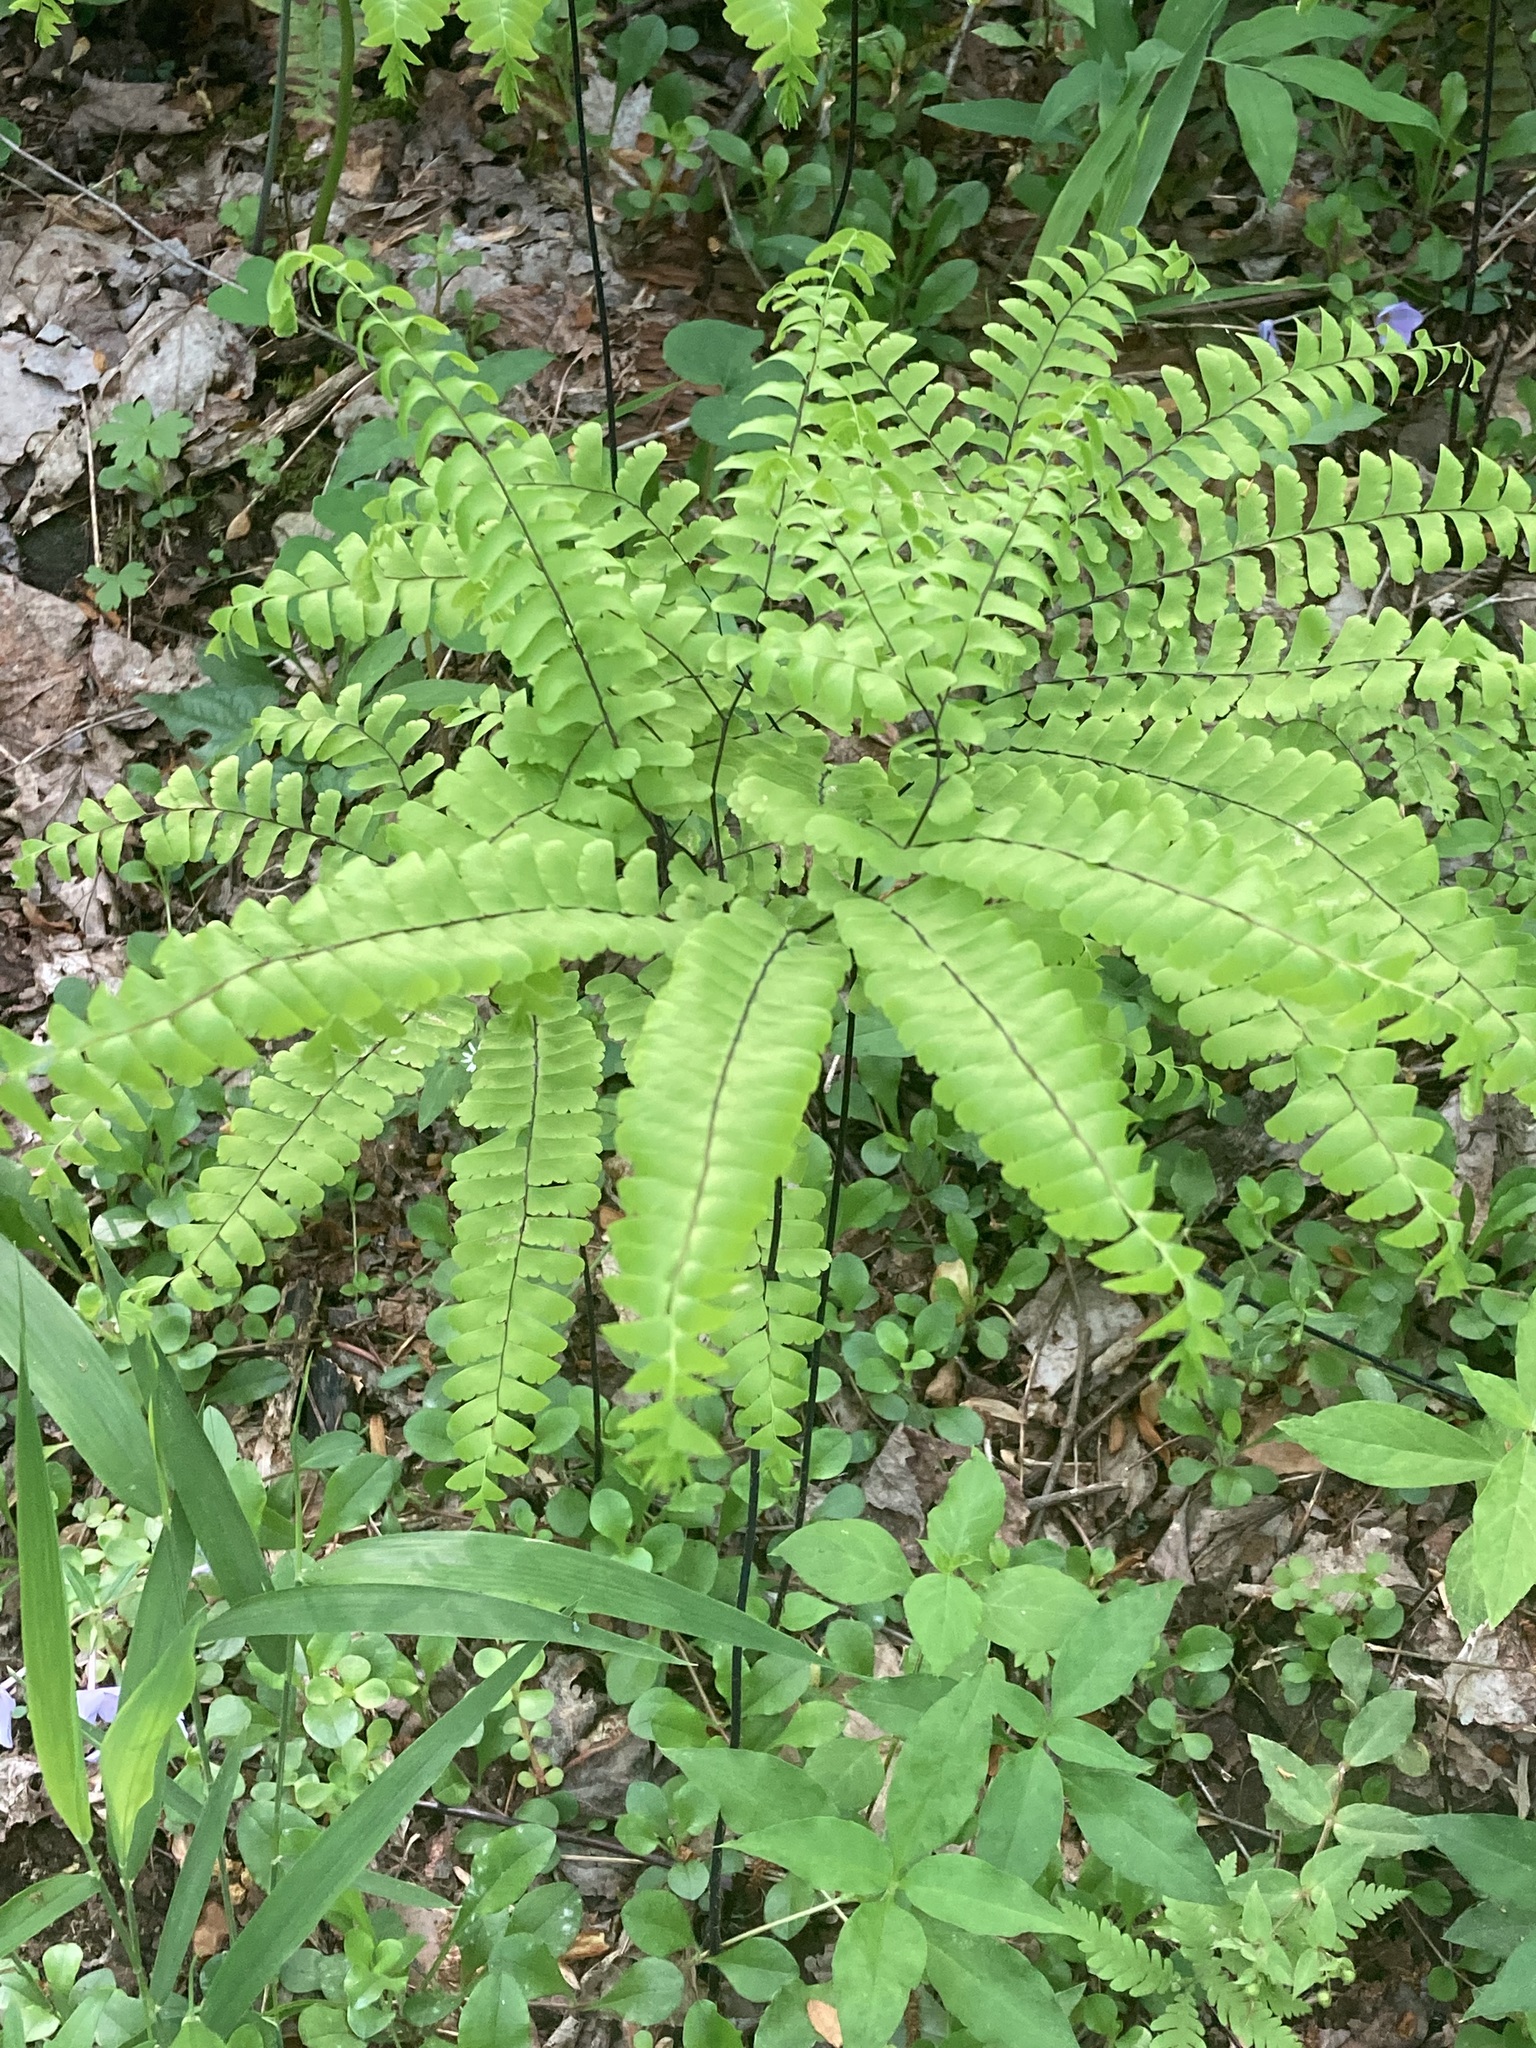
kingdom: Plantae
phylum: Tracheophyta
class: Polypodiopsida
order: Polypodiales
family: Pteridaceae
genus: Adiantum
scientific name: Adiantum pedatum
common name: Five-finger fern
